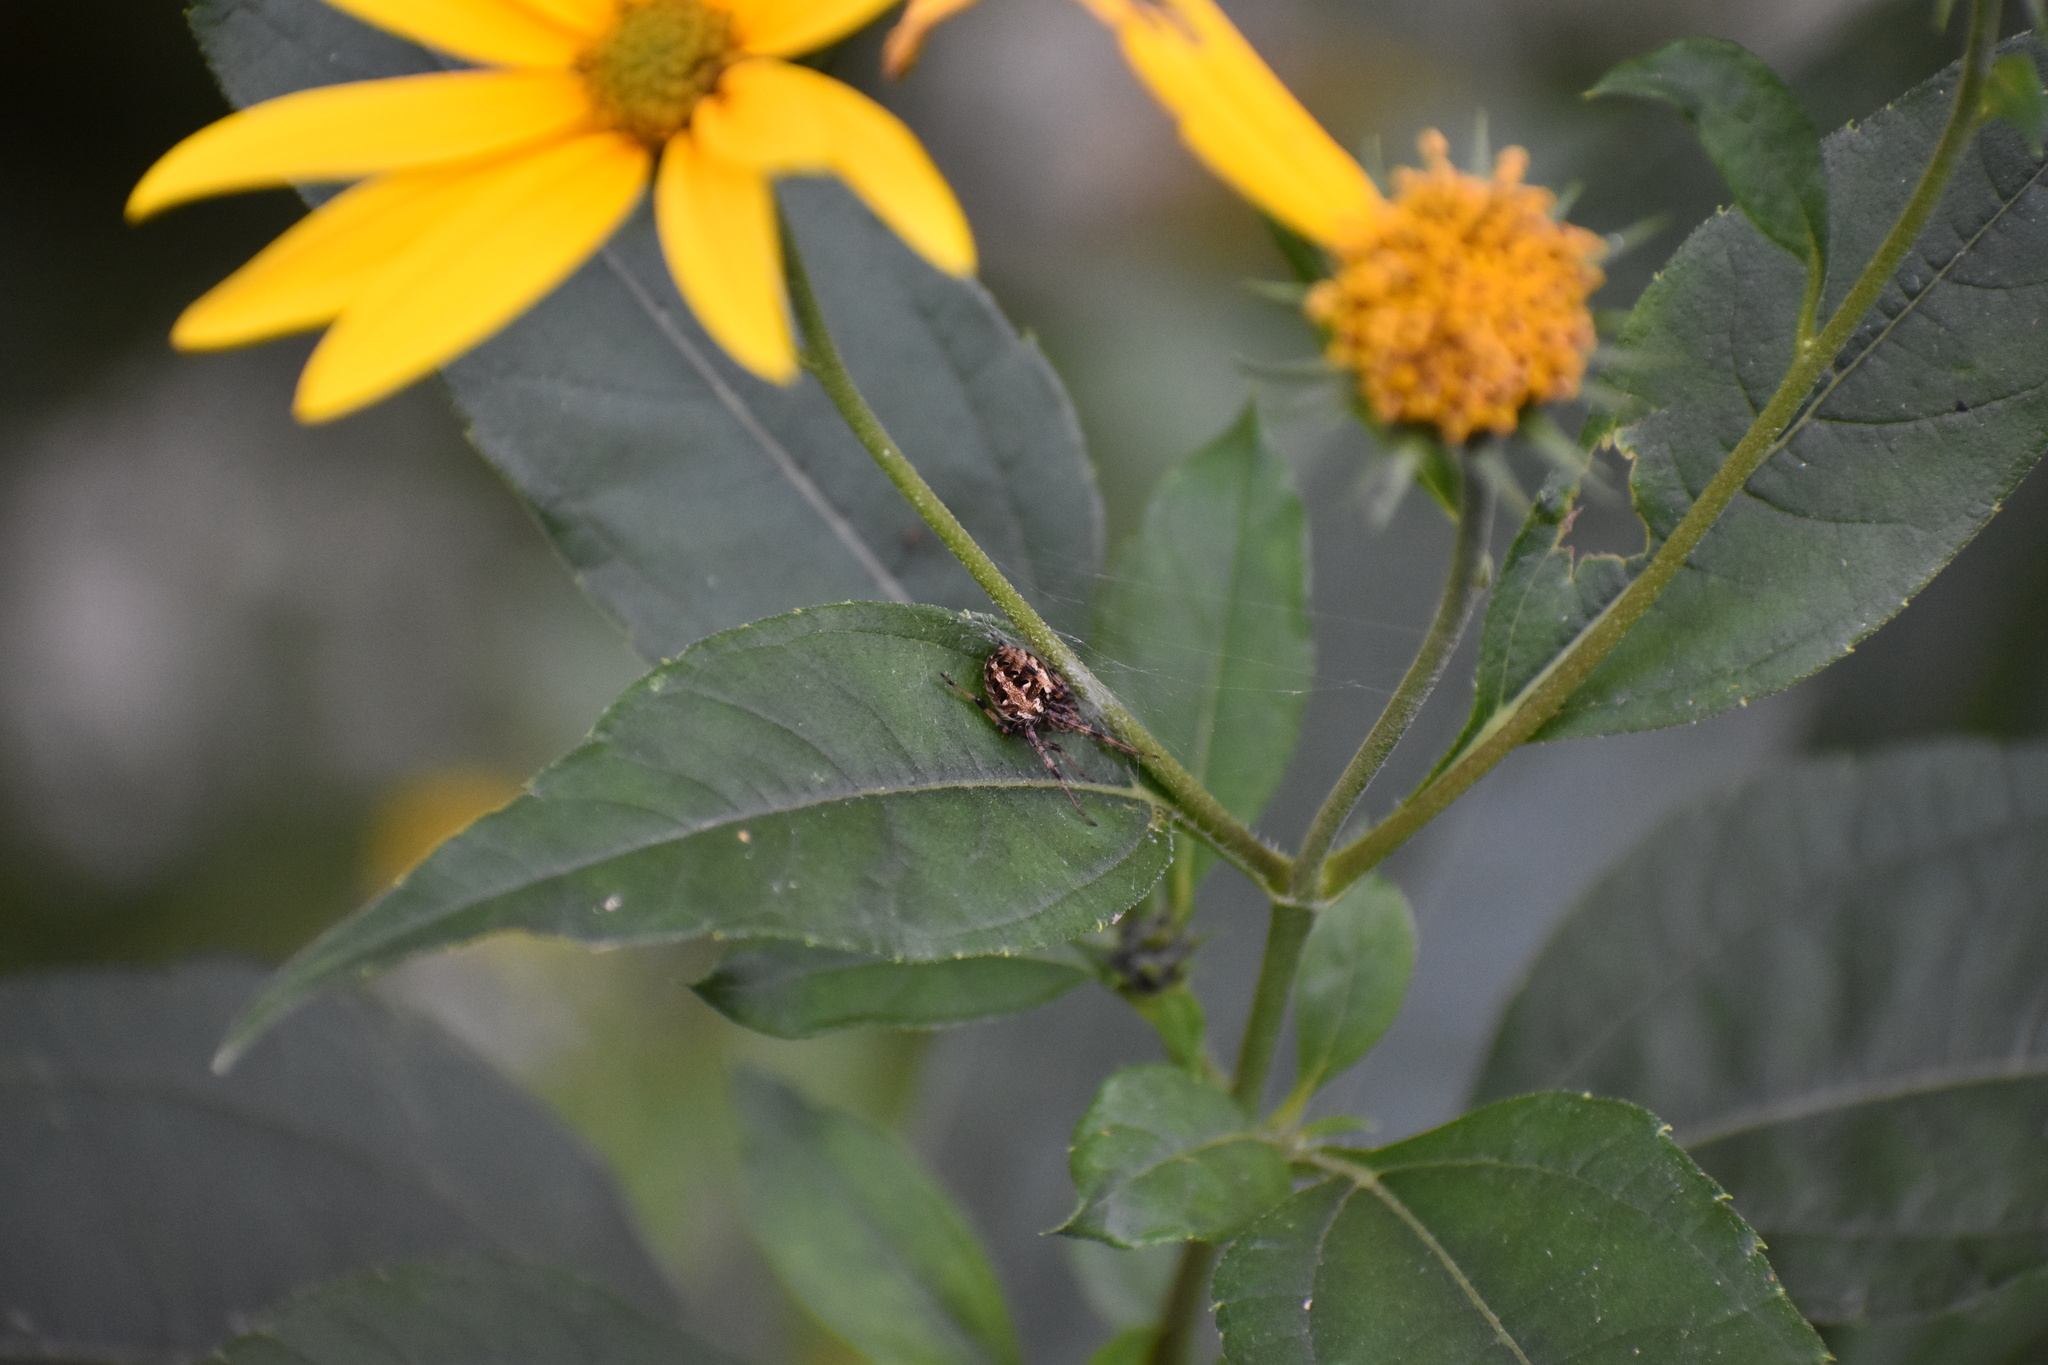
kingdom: Animalia
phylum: Arthropoda
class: Arachnida
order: Araneae
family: Araneidae
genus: Neoscona
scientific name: Neoscona arabesca
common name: Orb weavers
